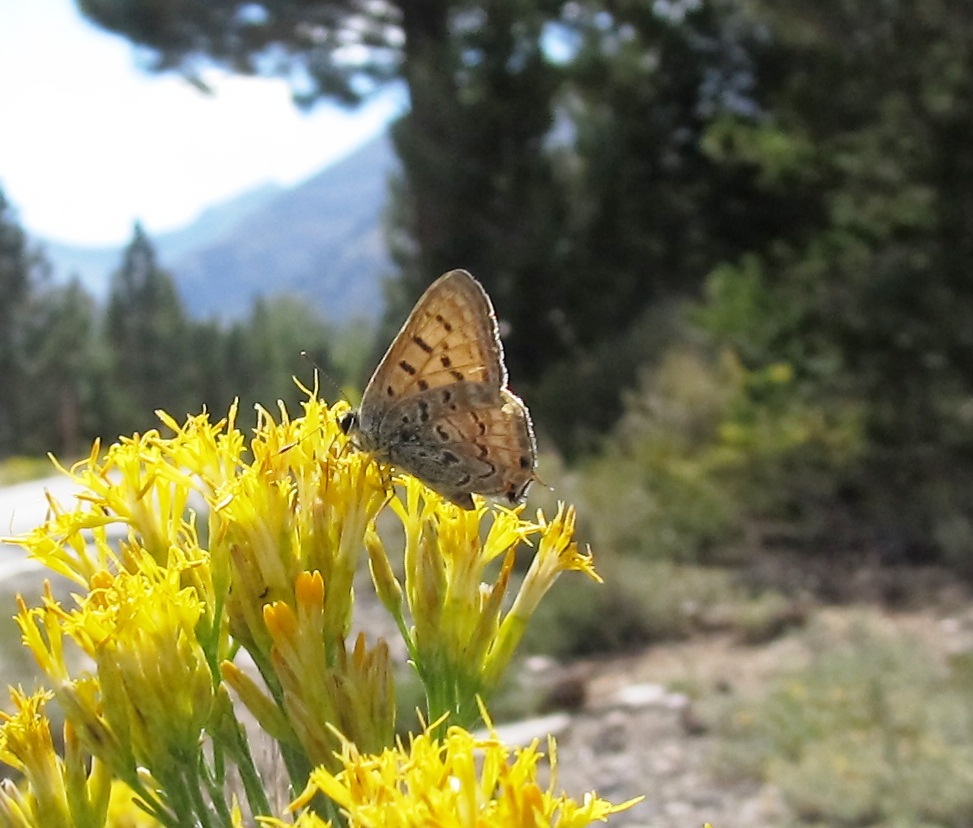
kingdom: Animalia
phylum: Arthropoda
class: Insecta
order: Lepidoptera
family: Lycaenidae
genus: Tharsalea
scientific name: Tharsalea arota
